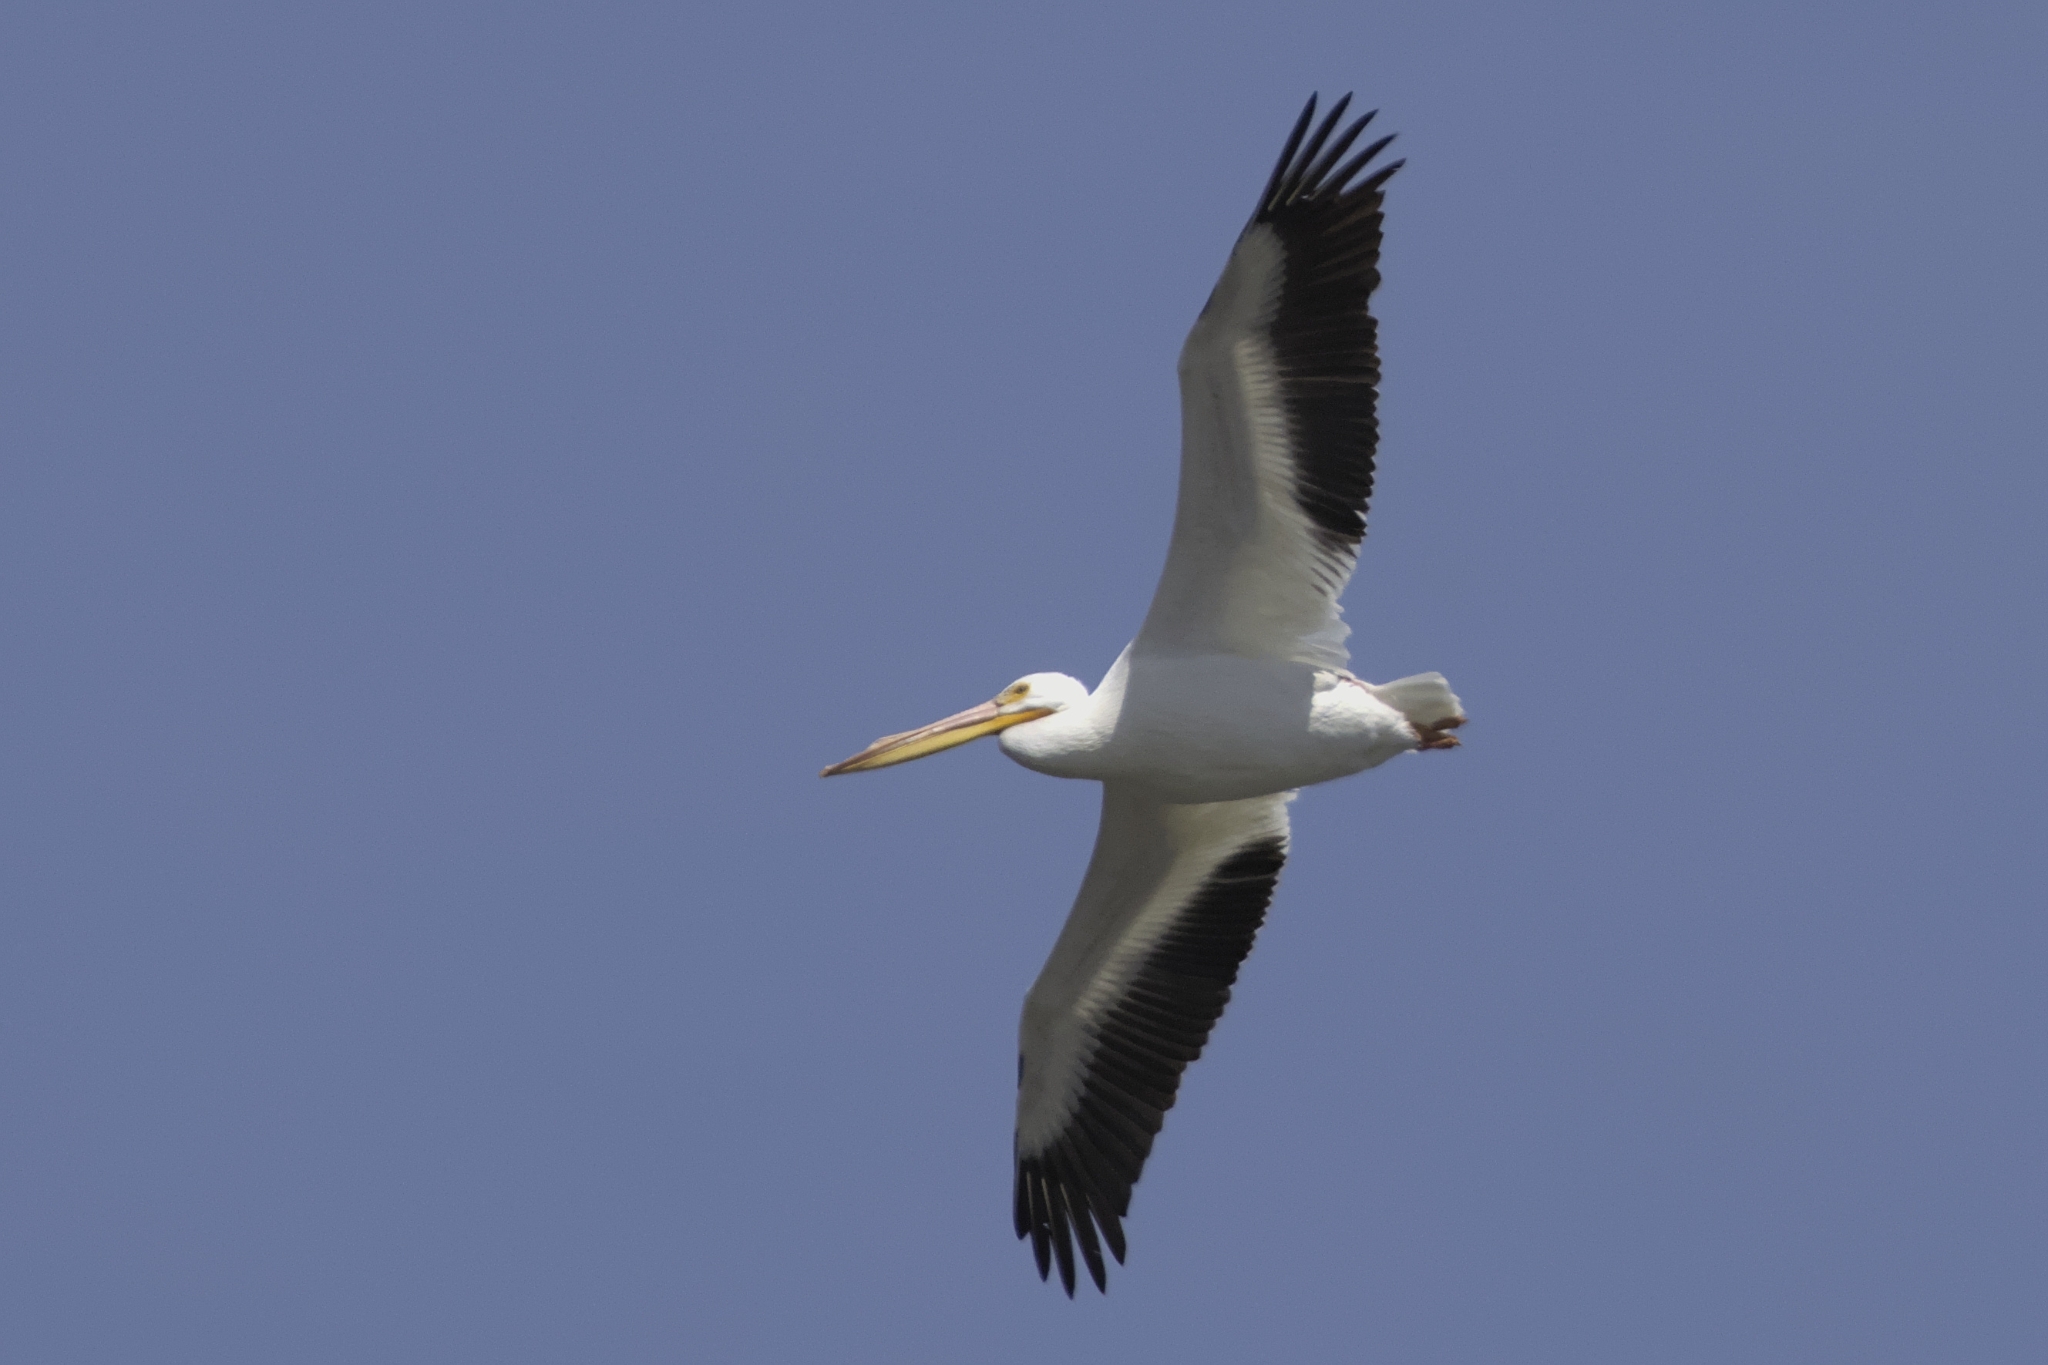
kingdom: Animalia
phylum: Chordata
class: Aves
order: Pelecaniformes
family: Pelecanidae
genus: Pelecanus
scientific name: Pelecanus erythrorhynchos
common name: American white pelican
